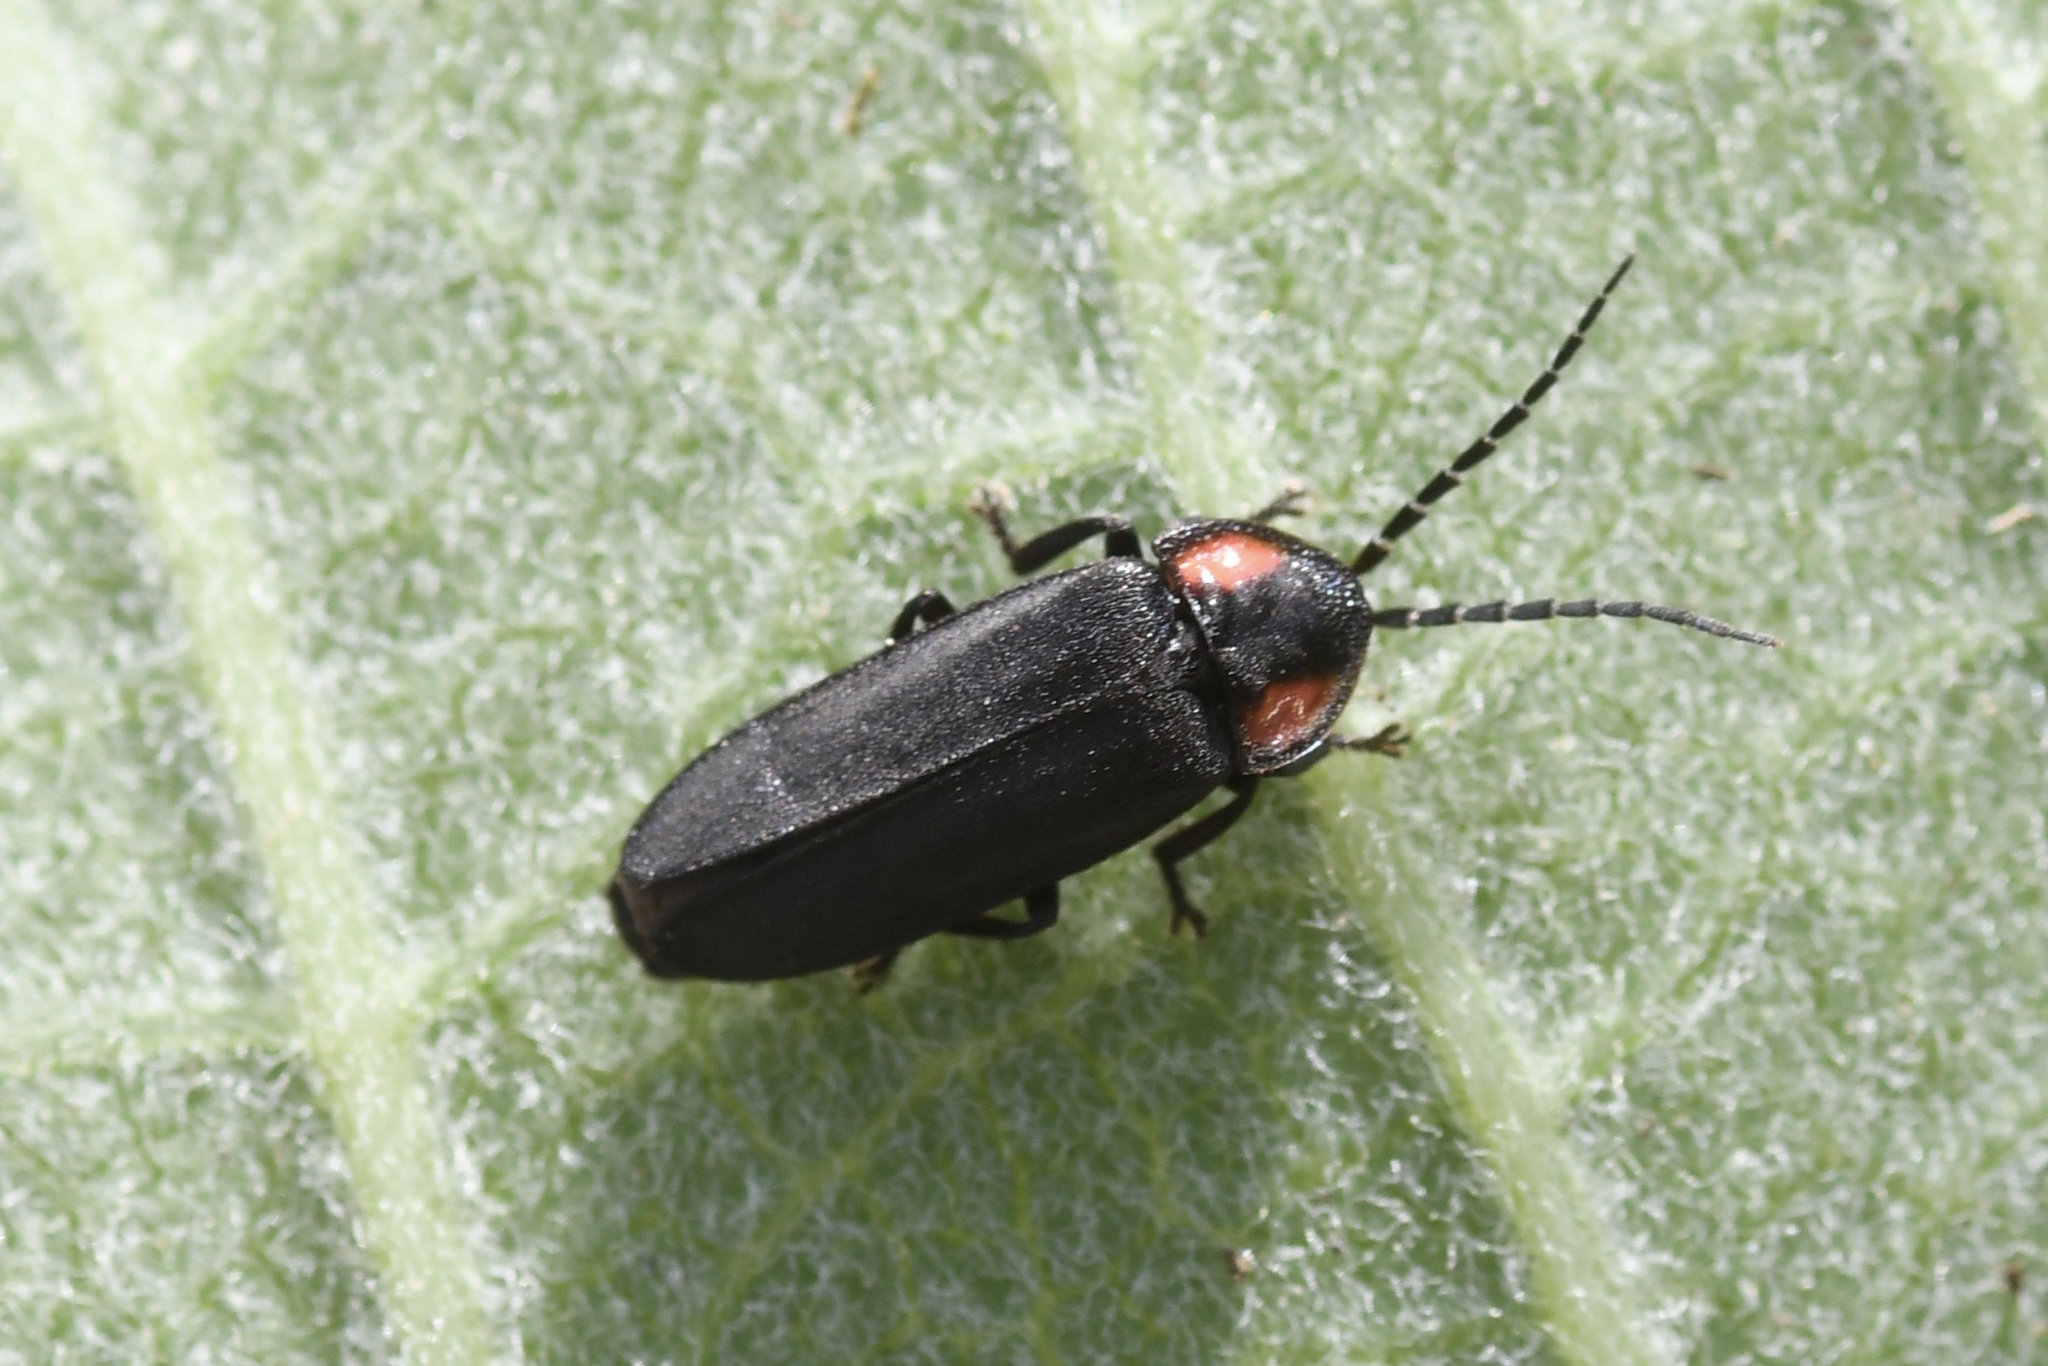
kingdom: Animalia
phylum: Arthropoda
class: Insecta
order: Coleoptera
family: Lampyridae
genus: Pyropyga
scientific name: Pyropyga nigricans
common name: Dark firefly
